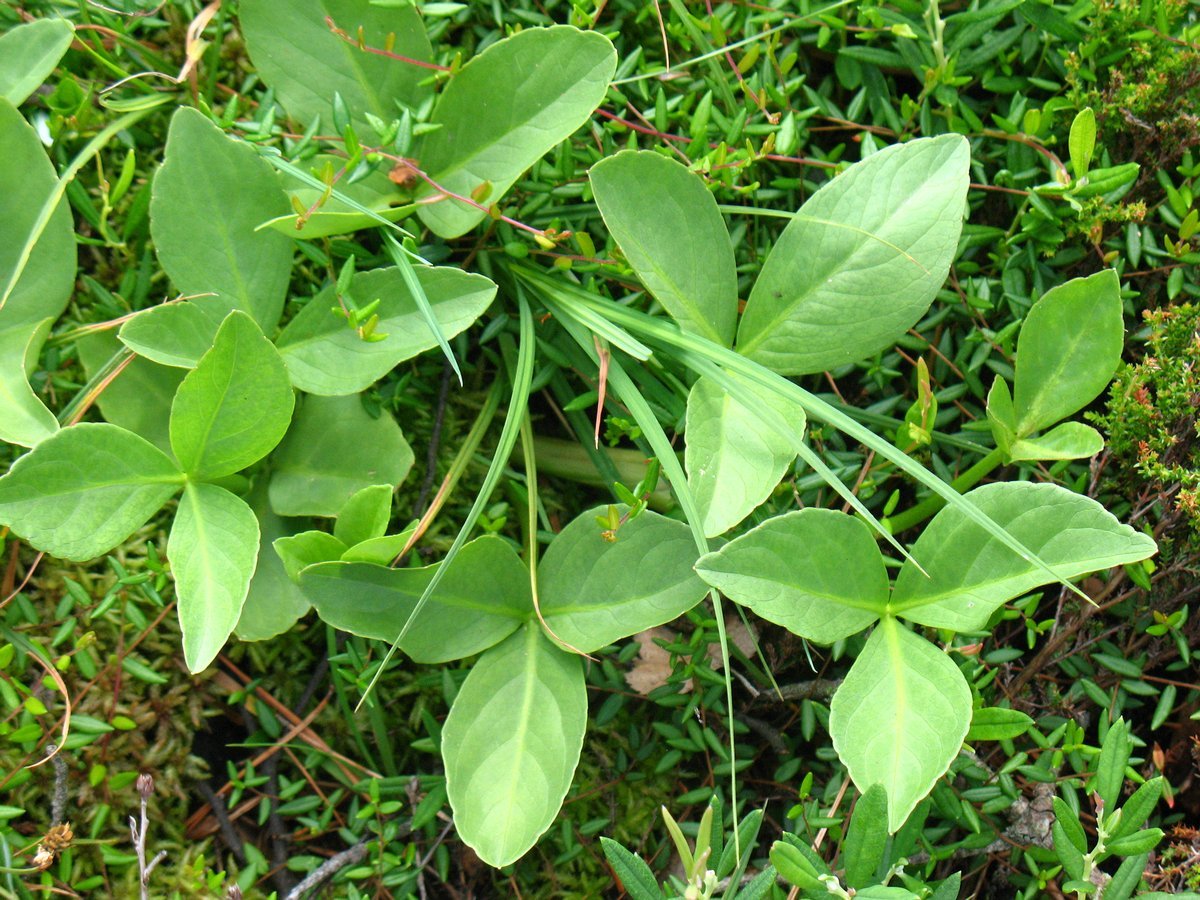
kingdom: Plantae
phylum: Tracheophyta
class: Magnoliopsida
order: Asterales
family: Menyanthaceae
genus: Menyanthes
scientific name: Menyanthes trifoliata
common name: Bogbean
